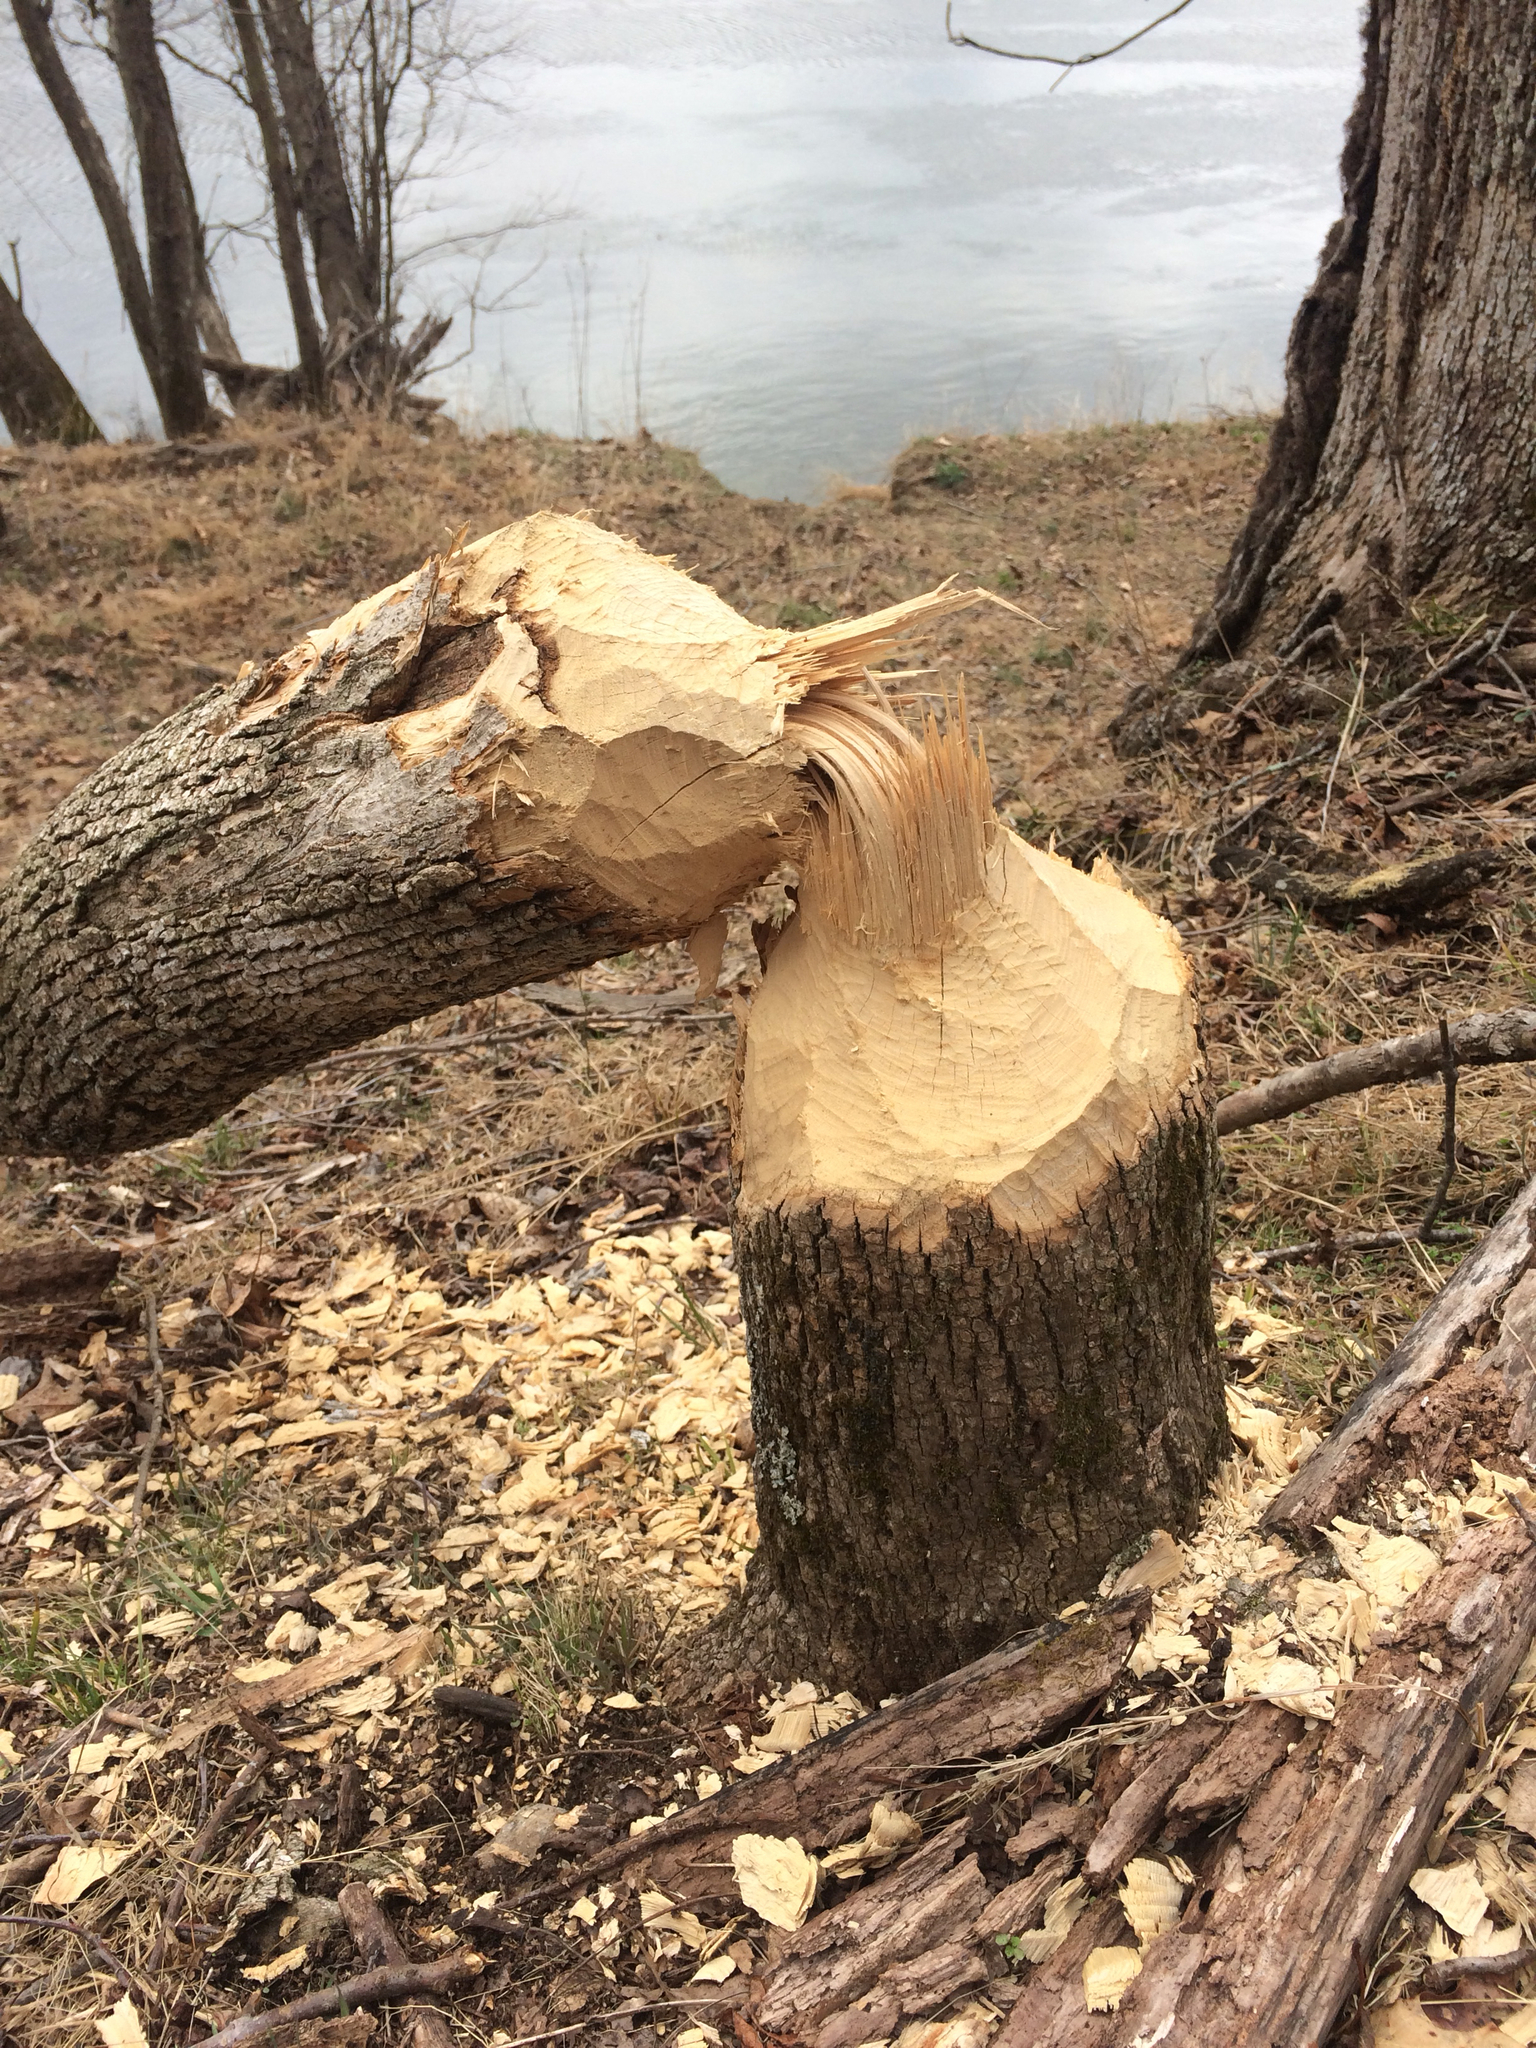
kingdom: Animalia
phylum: Chordata
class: Mammalia
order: Rodentia
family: Castoridae
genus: Castor
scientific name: Castor canadensis
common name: American beaver
